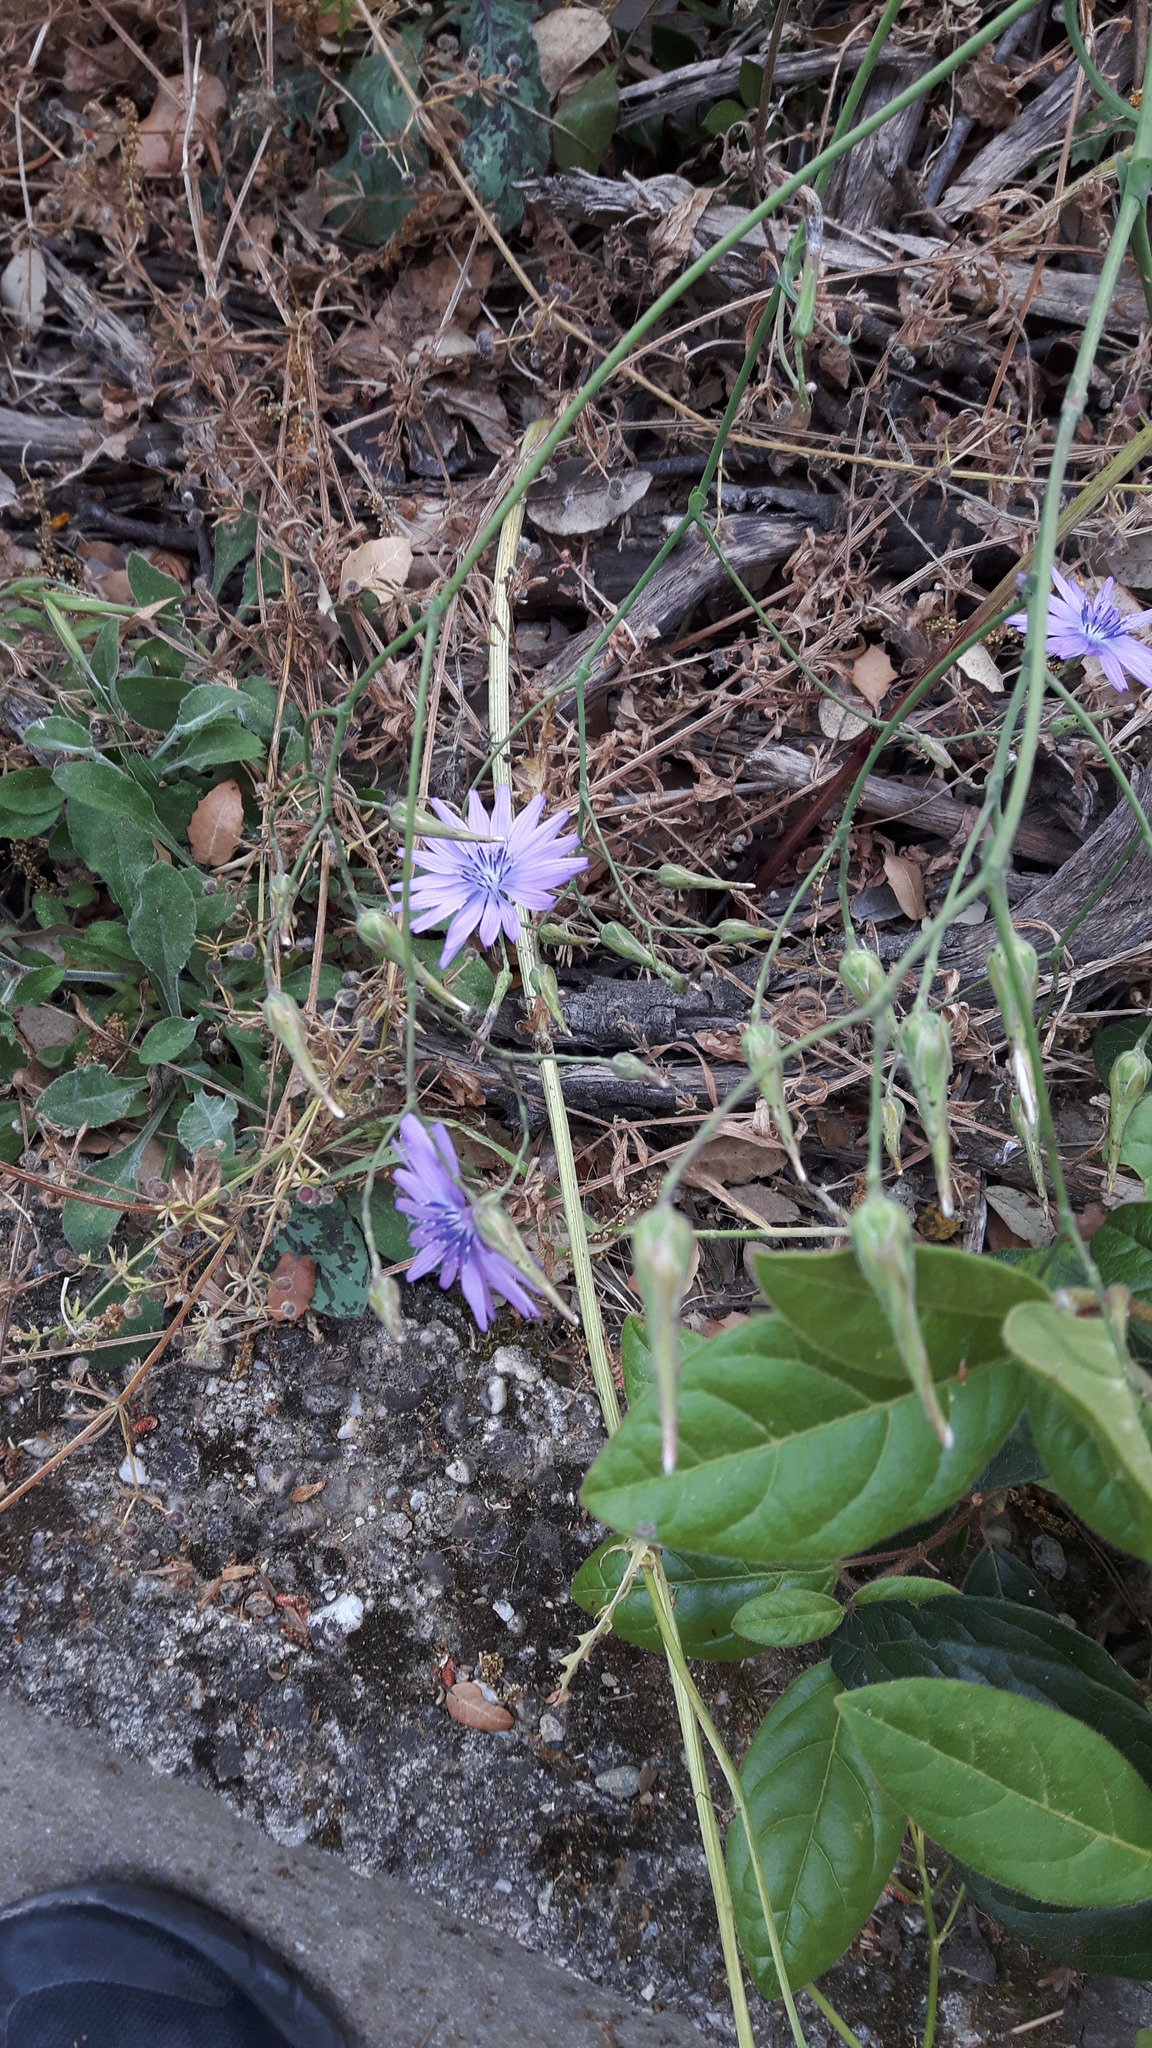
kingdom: Plantae
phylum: Tracheophyta
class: Magnoliopsida
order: Asterales
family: Asteraceae
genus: Lactuca
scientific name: Lactuca perennis
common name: Mountain lettuce
